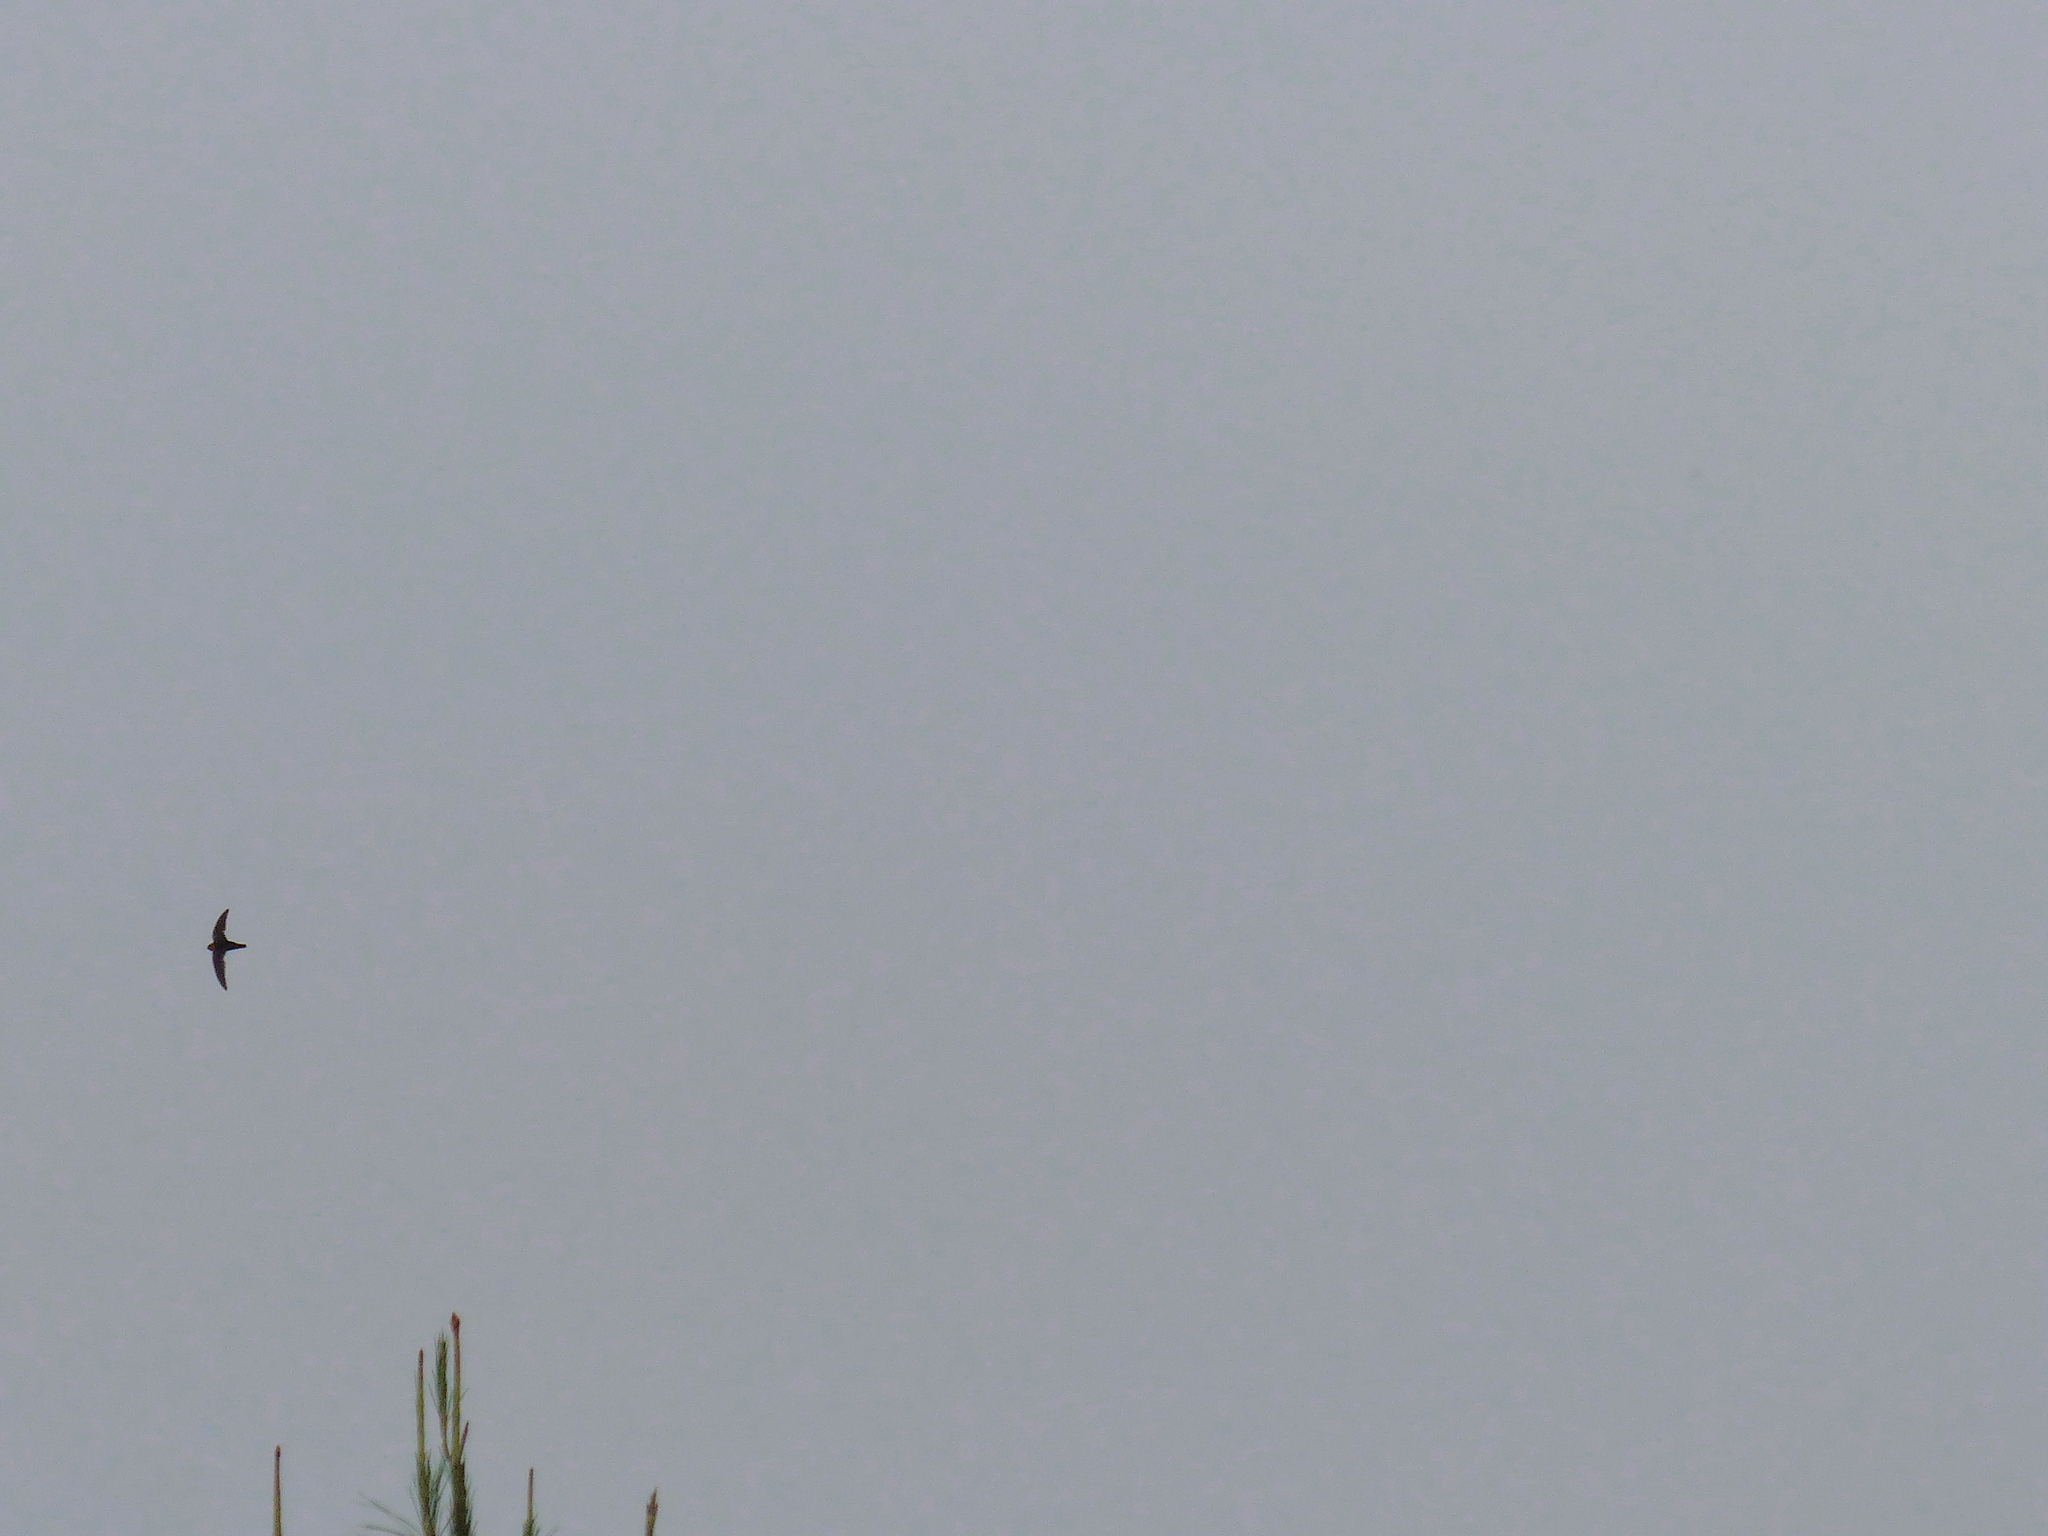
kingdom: Animalia
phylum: Chordata
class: Aves
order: Apodiformes
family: Apodidae
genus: Streptoprocne
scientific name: Streptoprocne rutila
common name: Chestnut-collared swift
